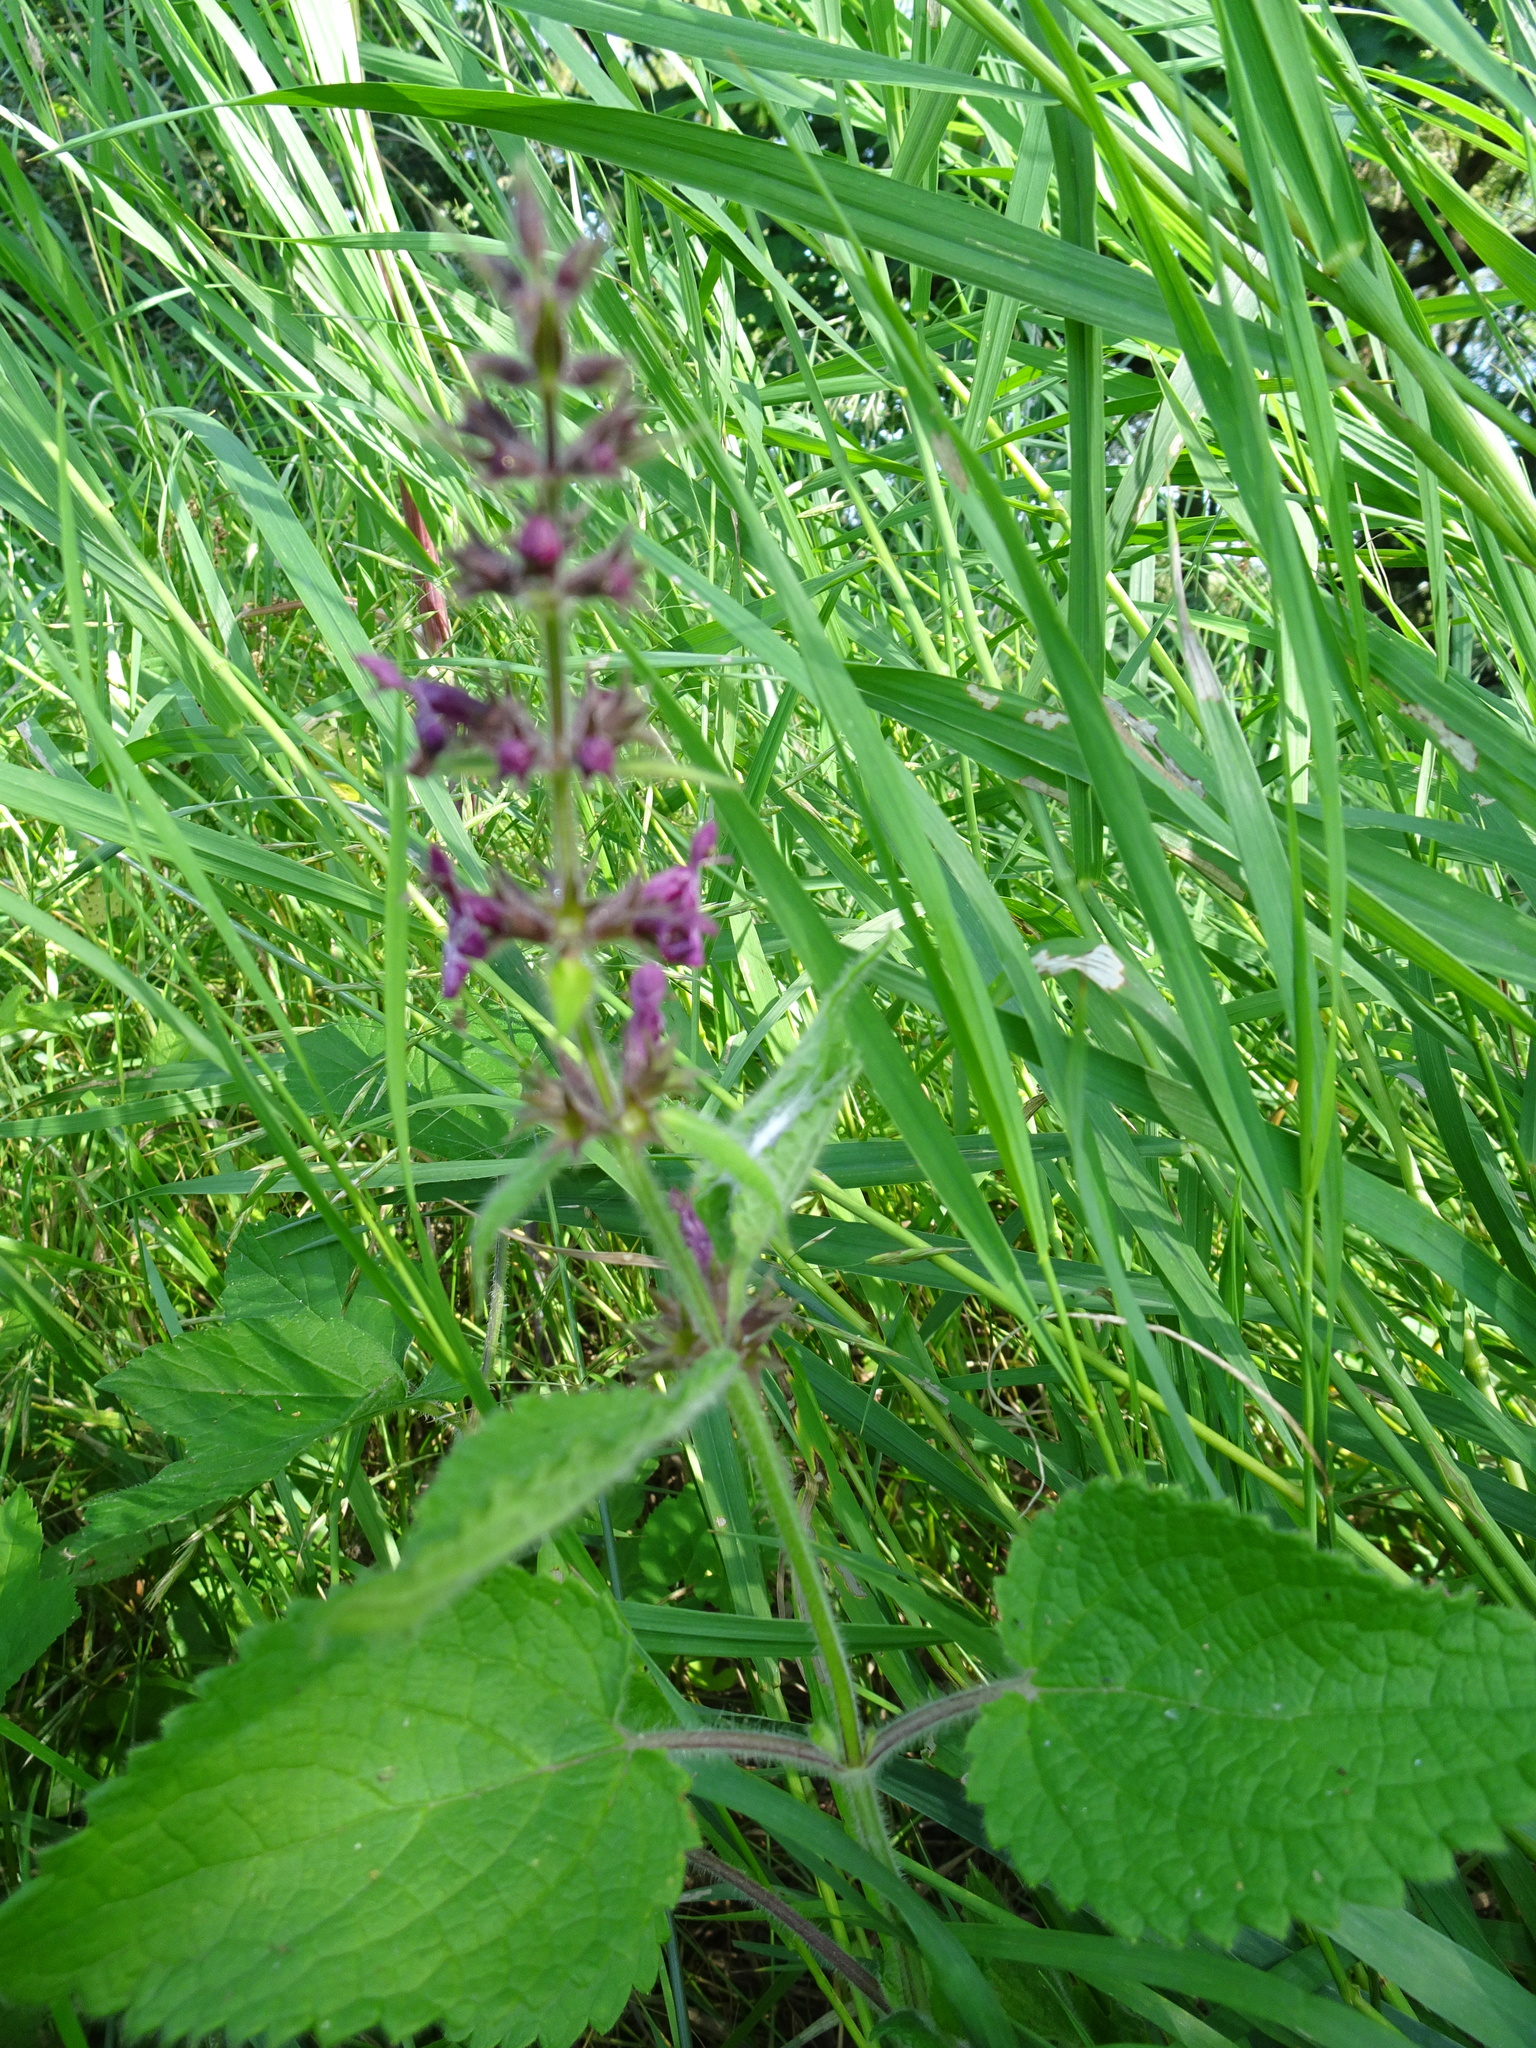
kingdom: Plantae
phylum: Tracheophyta
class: Magnoliopsida
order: Lamiales
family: Lamiaceae
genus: Stachys
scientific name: Stachys sylvatica
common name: Hedge woundwort
